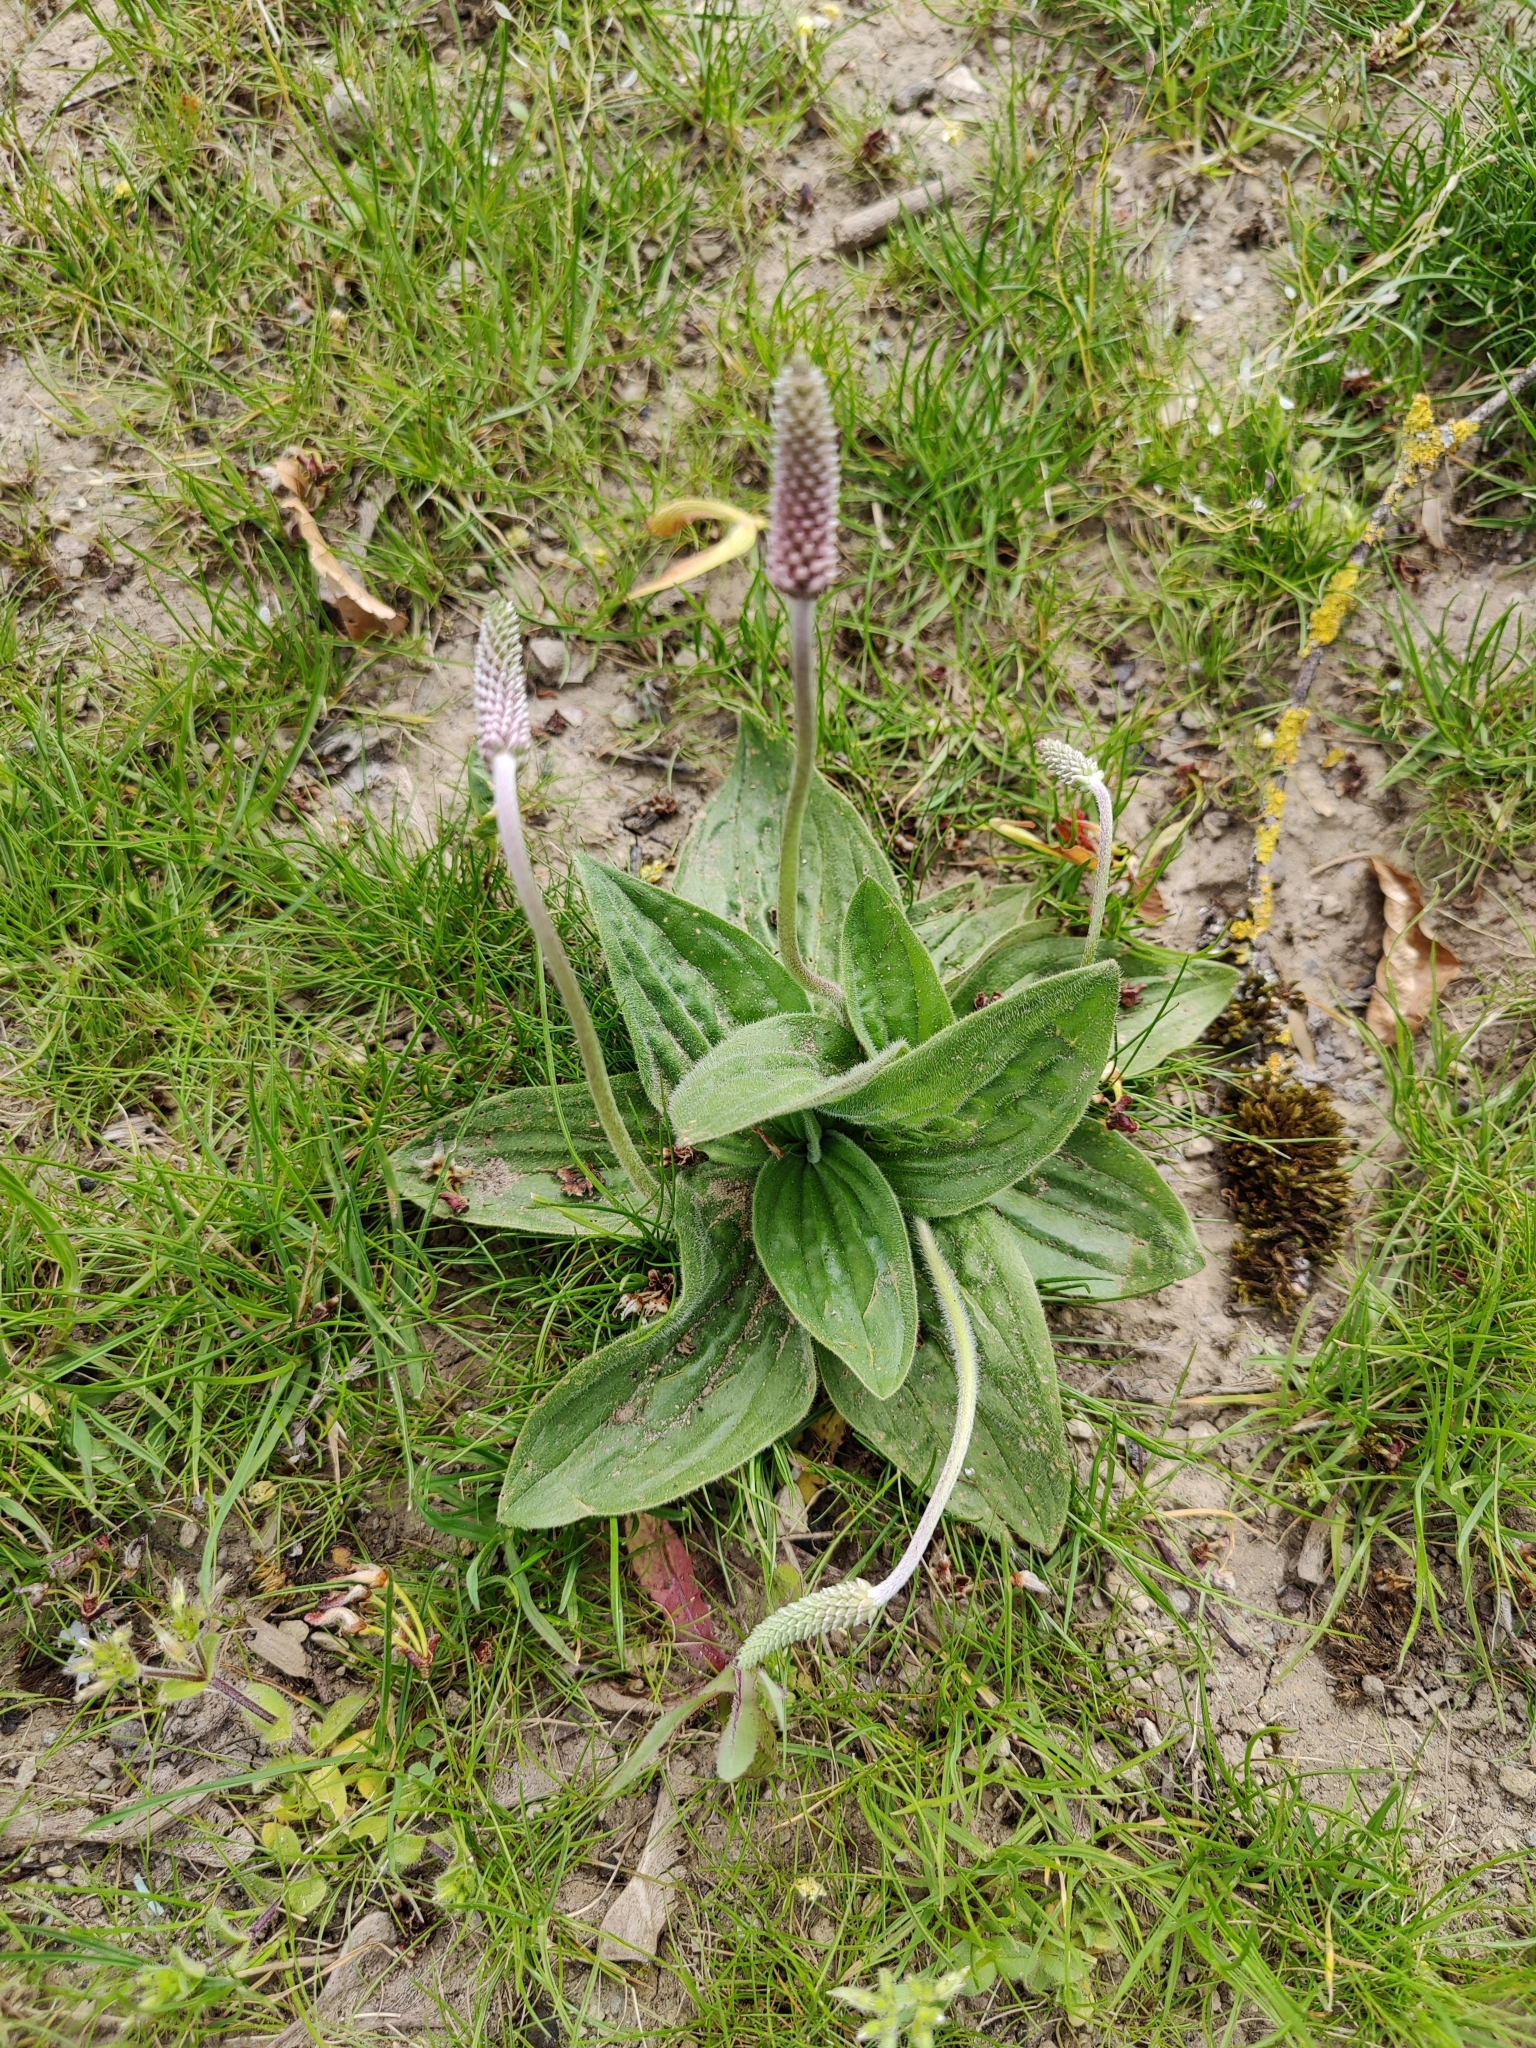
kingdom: Plantae
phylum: Tracheophyta
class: Magnoliopsida
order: Lamiales
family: Plantaginaceae
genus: Plantago
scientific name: Plantago media
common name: Hoary plantain
